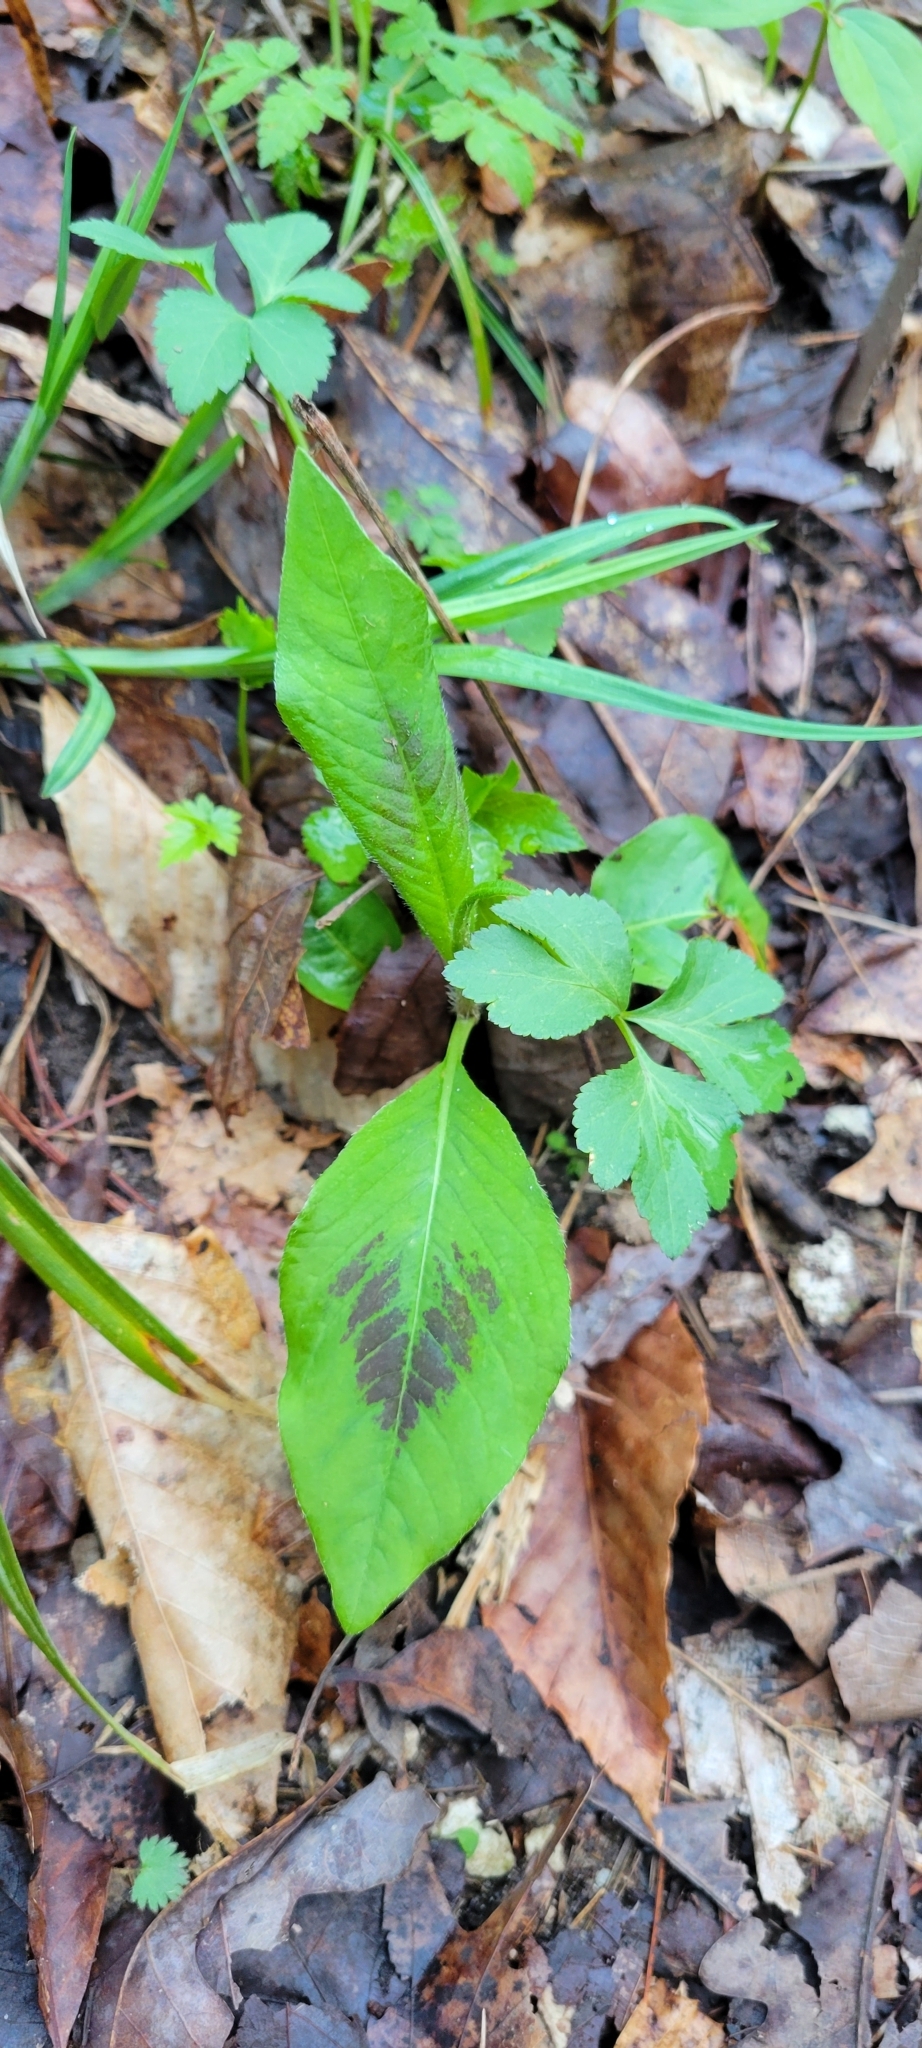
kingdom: Plantae
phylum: Tracheophyta
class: Magnoliopsida
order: Caryophyllales
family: Polygonaceae
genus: Persicaria
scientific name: Persicaria virginiana
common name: Jumpseed
